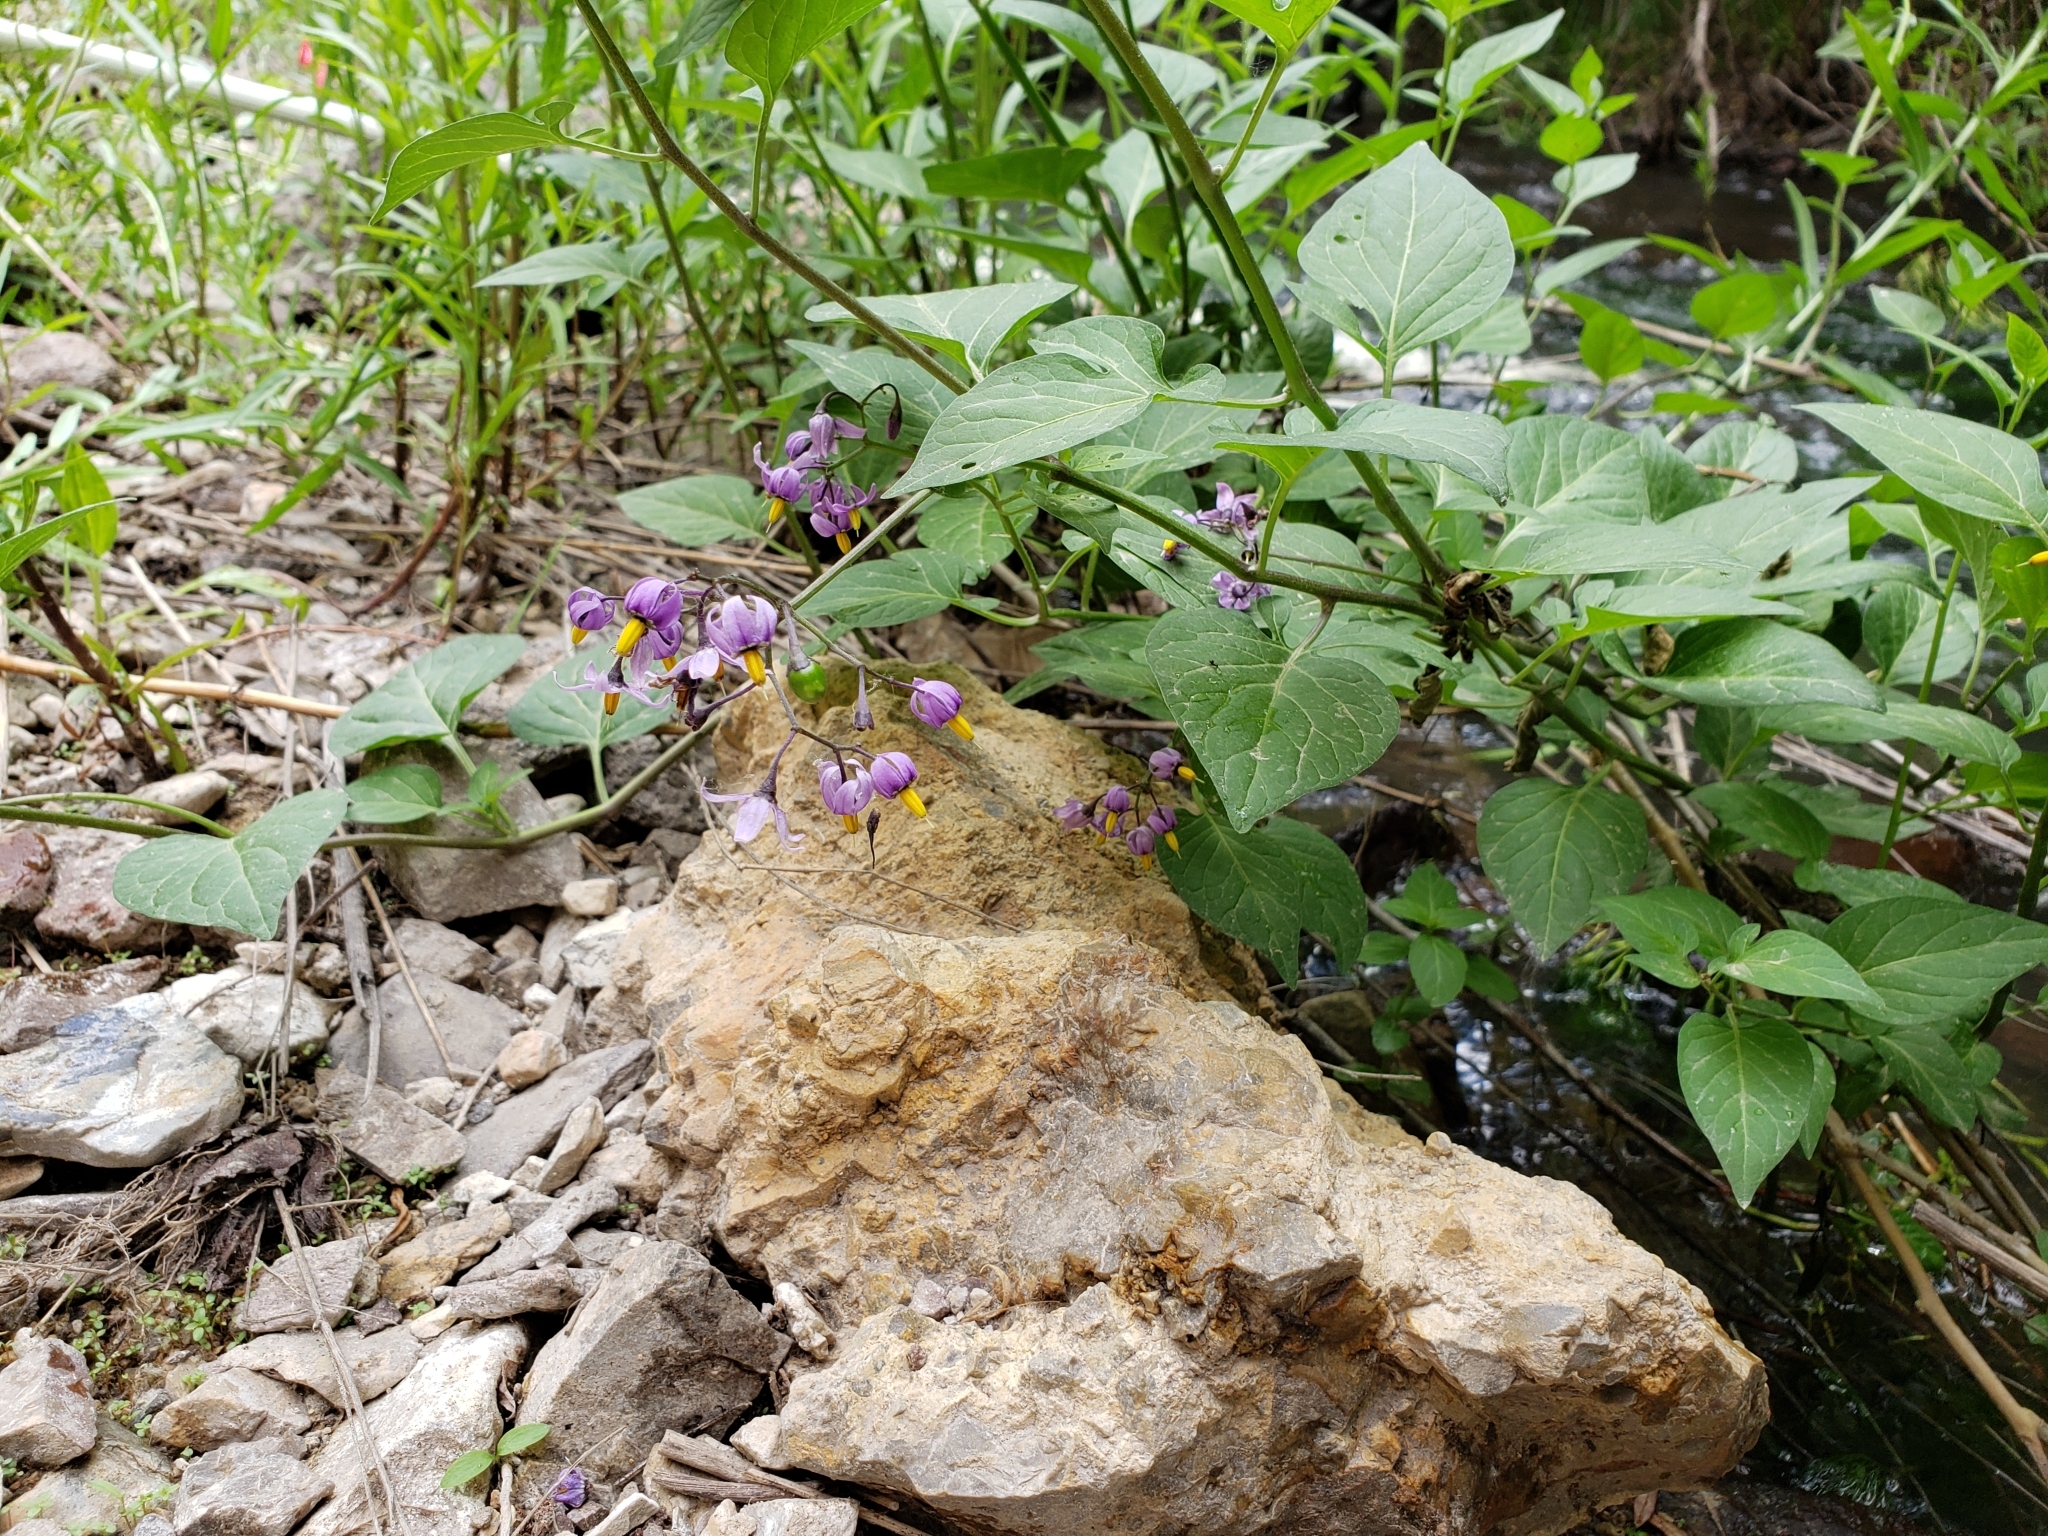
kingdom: Plantae
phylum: Tracheophyta
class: Magnoliopsida
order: Solanales
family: Solanaceae
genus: Solanum
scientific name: Solanum dulcamara
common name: Climbing nightshade
